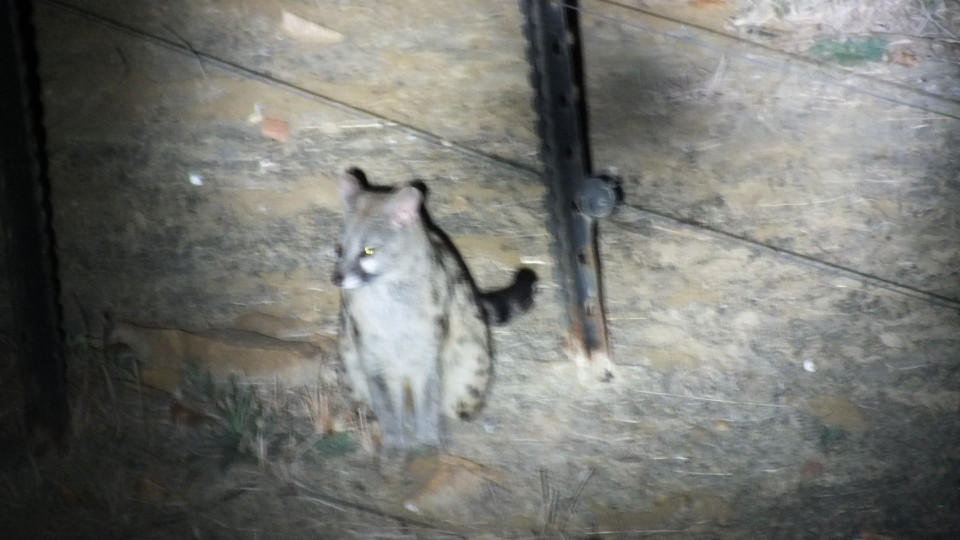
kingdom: Animalia
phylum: Chordata
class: Mammalia
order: Carnivora
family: Viverridae
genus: Genetta
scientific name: Genetta maculata
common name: Rusty-spotted genet
